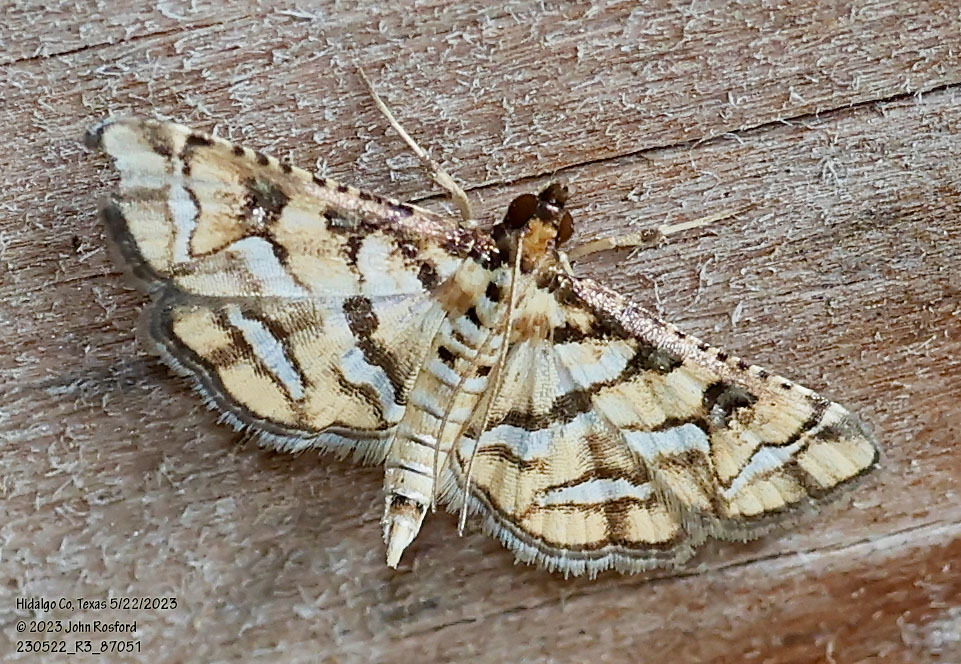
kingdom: Animalia
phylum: Arthropoda
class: Insecta
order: Lepidoptera
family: Crambidae
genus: Hileithia
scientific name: Hileithia magualis
